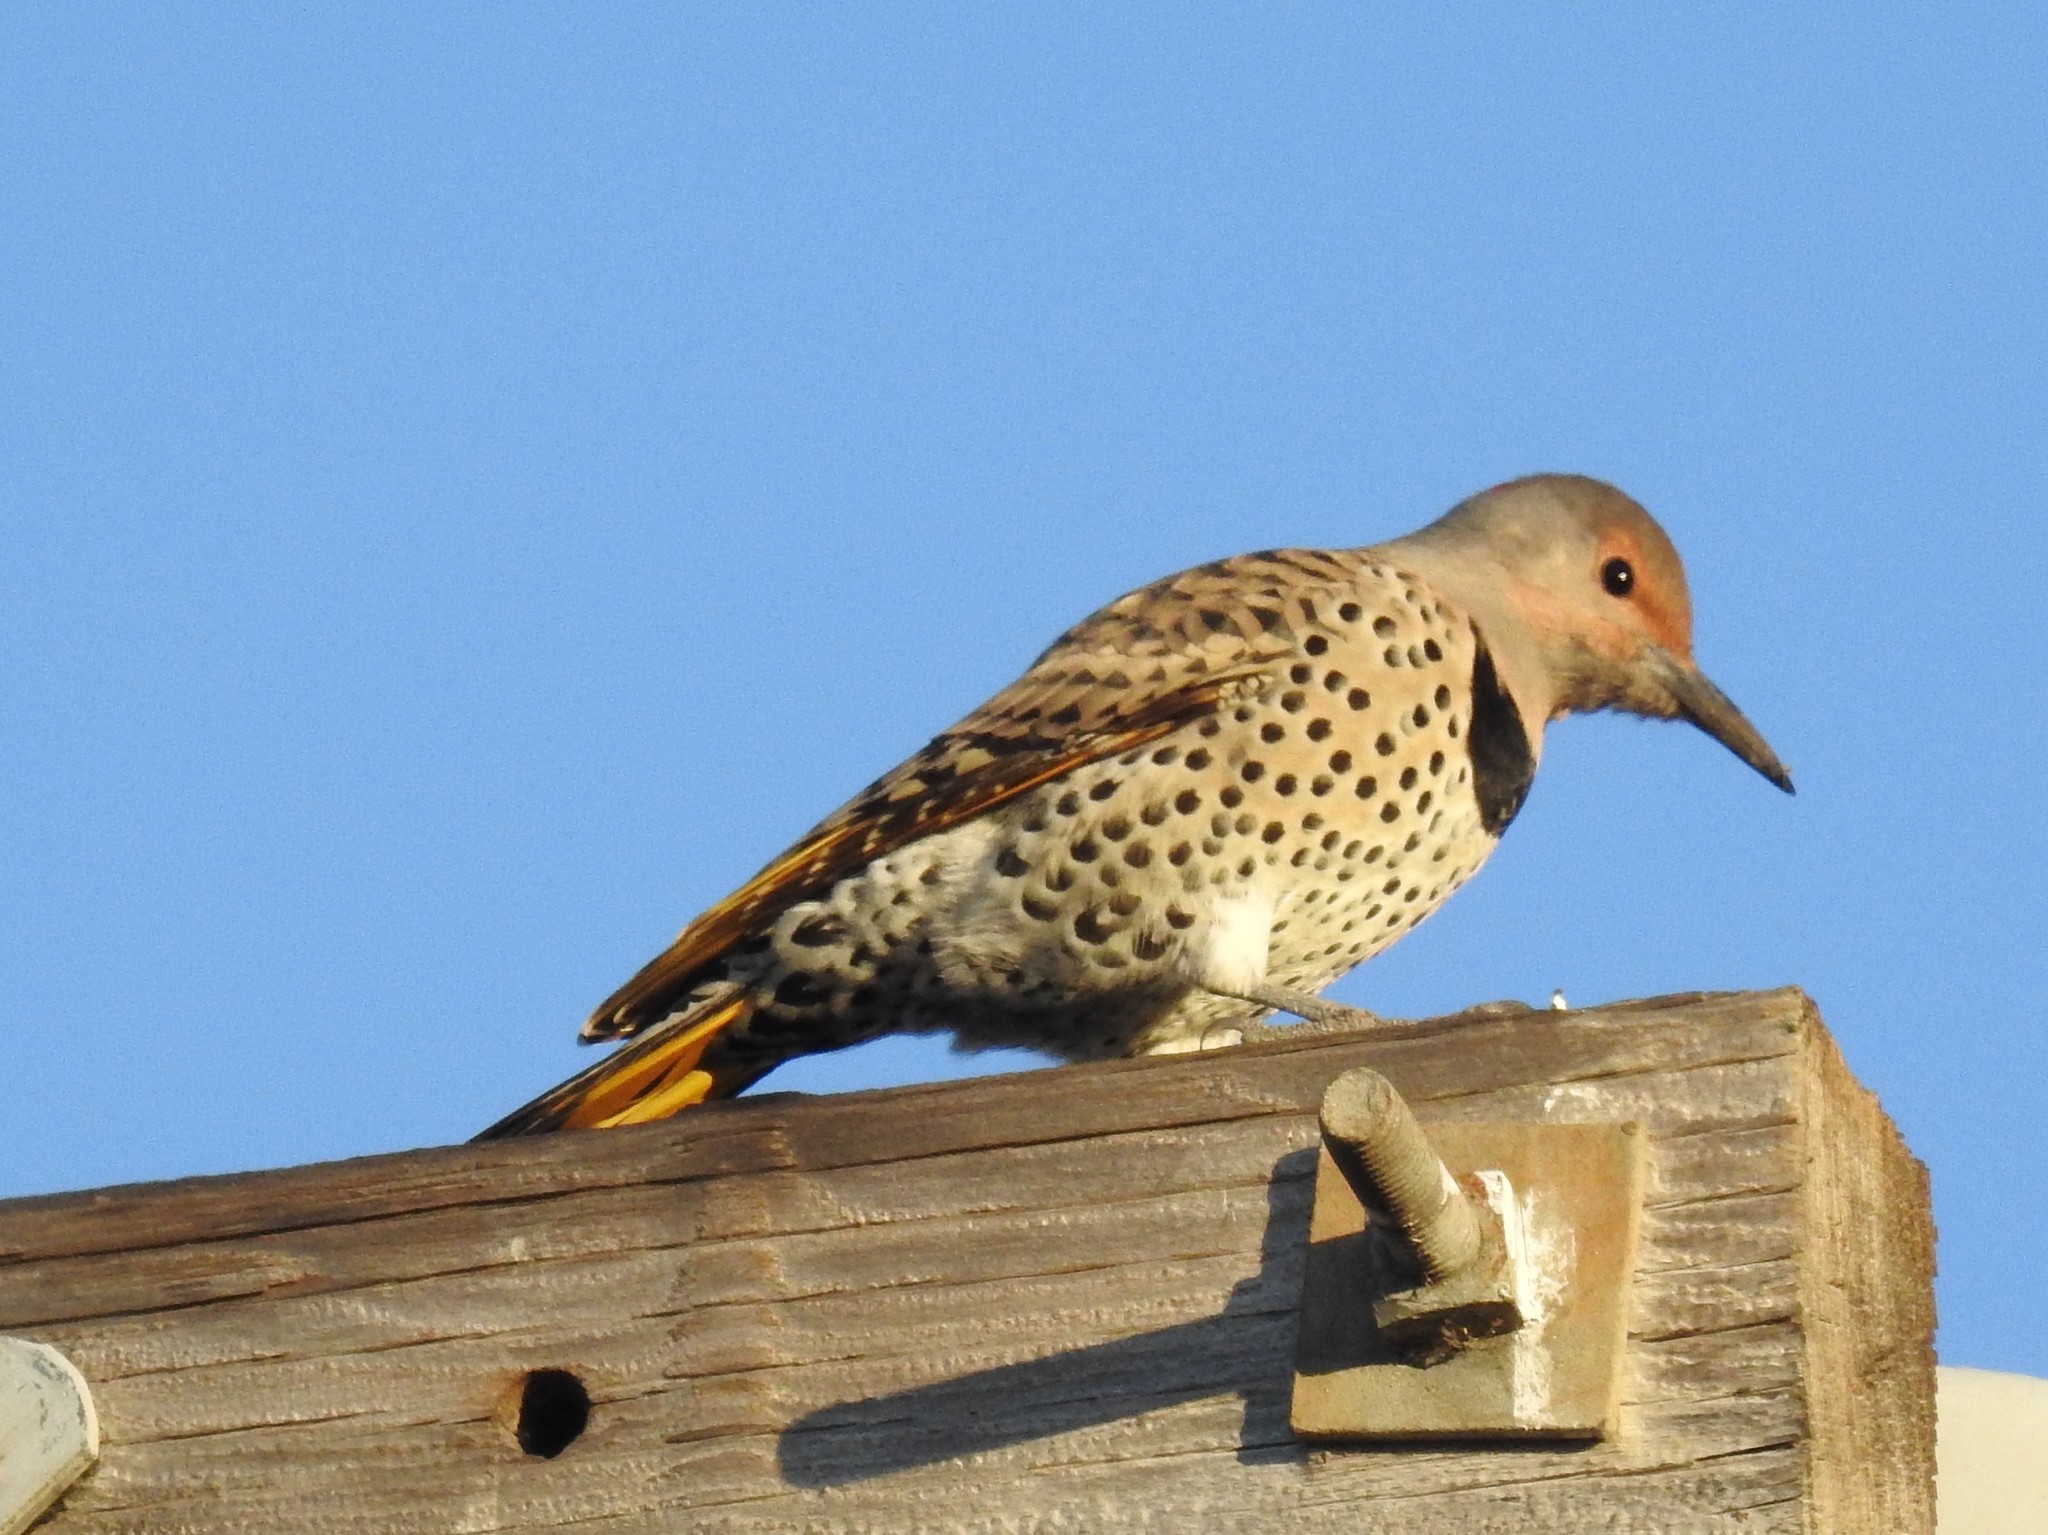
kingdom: Animalia
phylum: Chordata
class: Aves
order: Piciformes
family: Picidae
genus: Colaptes
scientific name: Colaptes auratus
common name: Northern flicker
